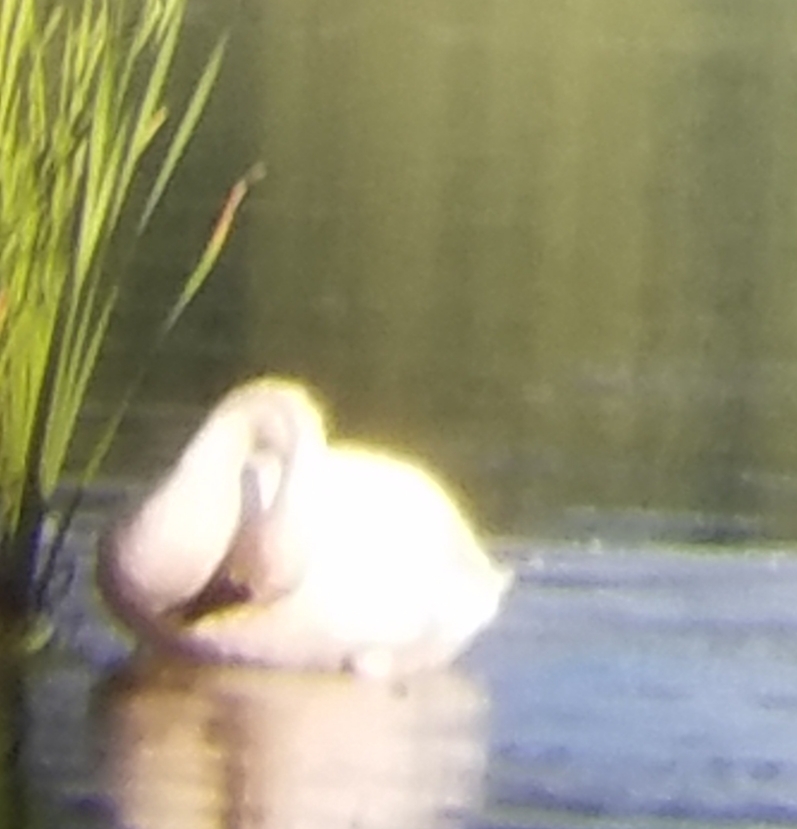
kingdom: Animalia
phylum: Chordata
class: Aves
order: Anseriformes
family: Anatidae
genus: Cygnus
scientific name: Cygnus buccinator
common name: Trumpeter swan
